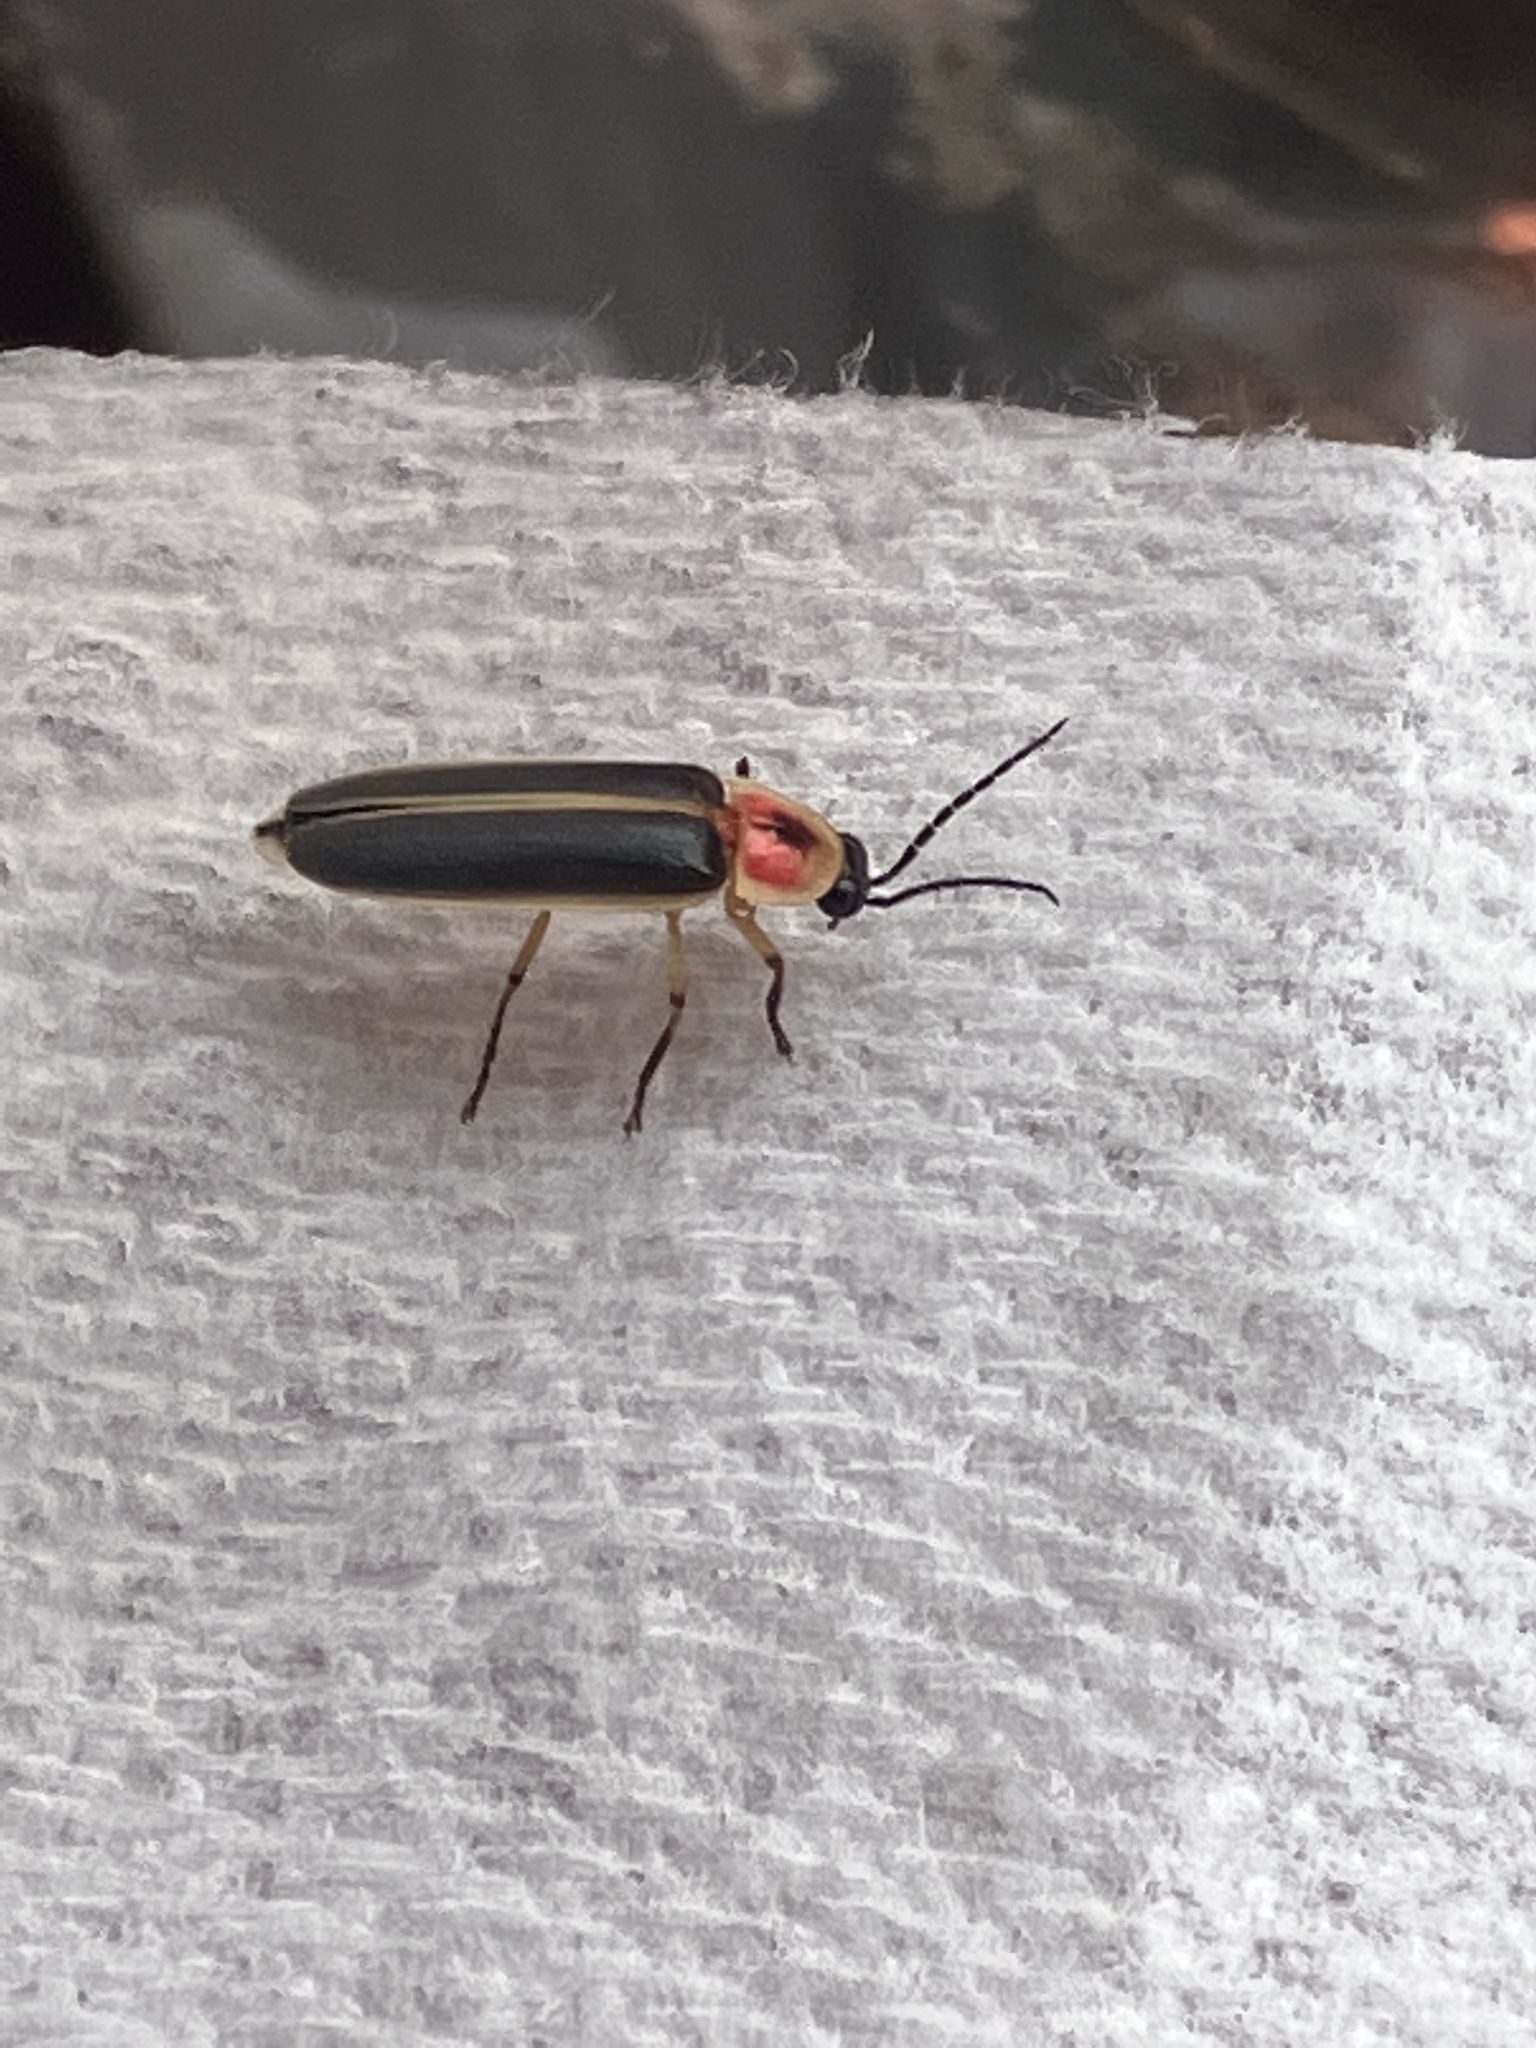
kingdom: Animalia
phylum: Arthropoda
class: Insecta
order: Coleoptera
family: Lampyridae
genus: Photinus
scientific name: Photinus pyralis
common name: Big dipper firefly
